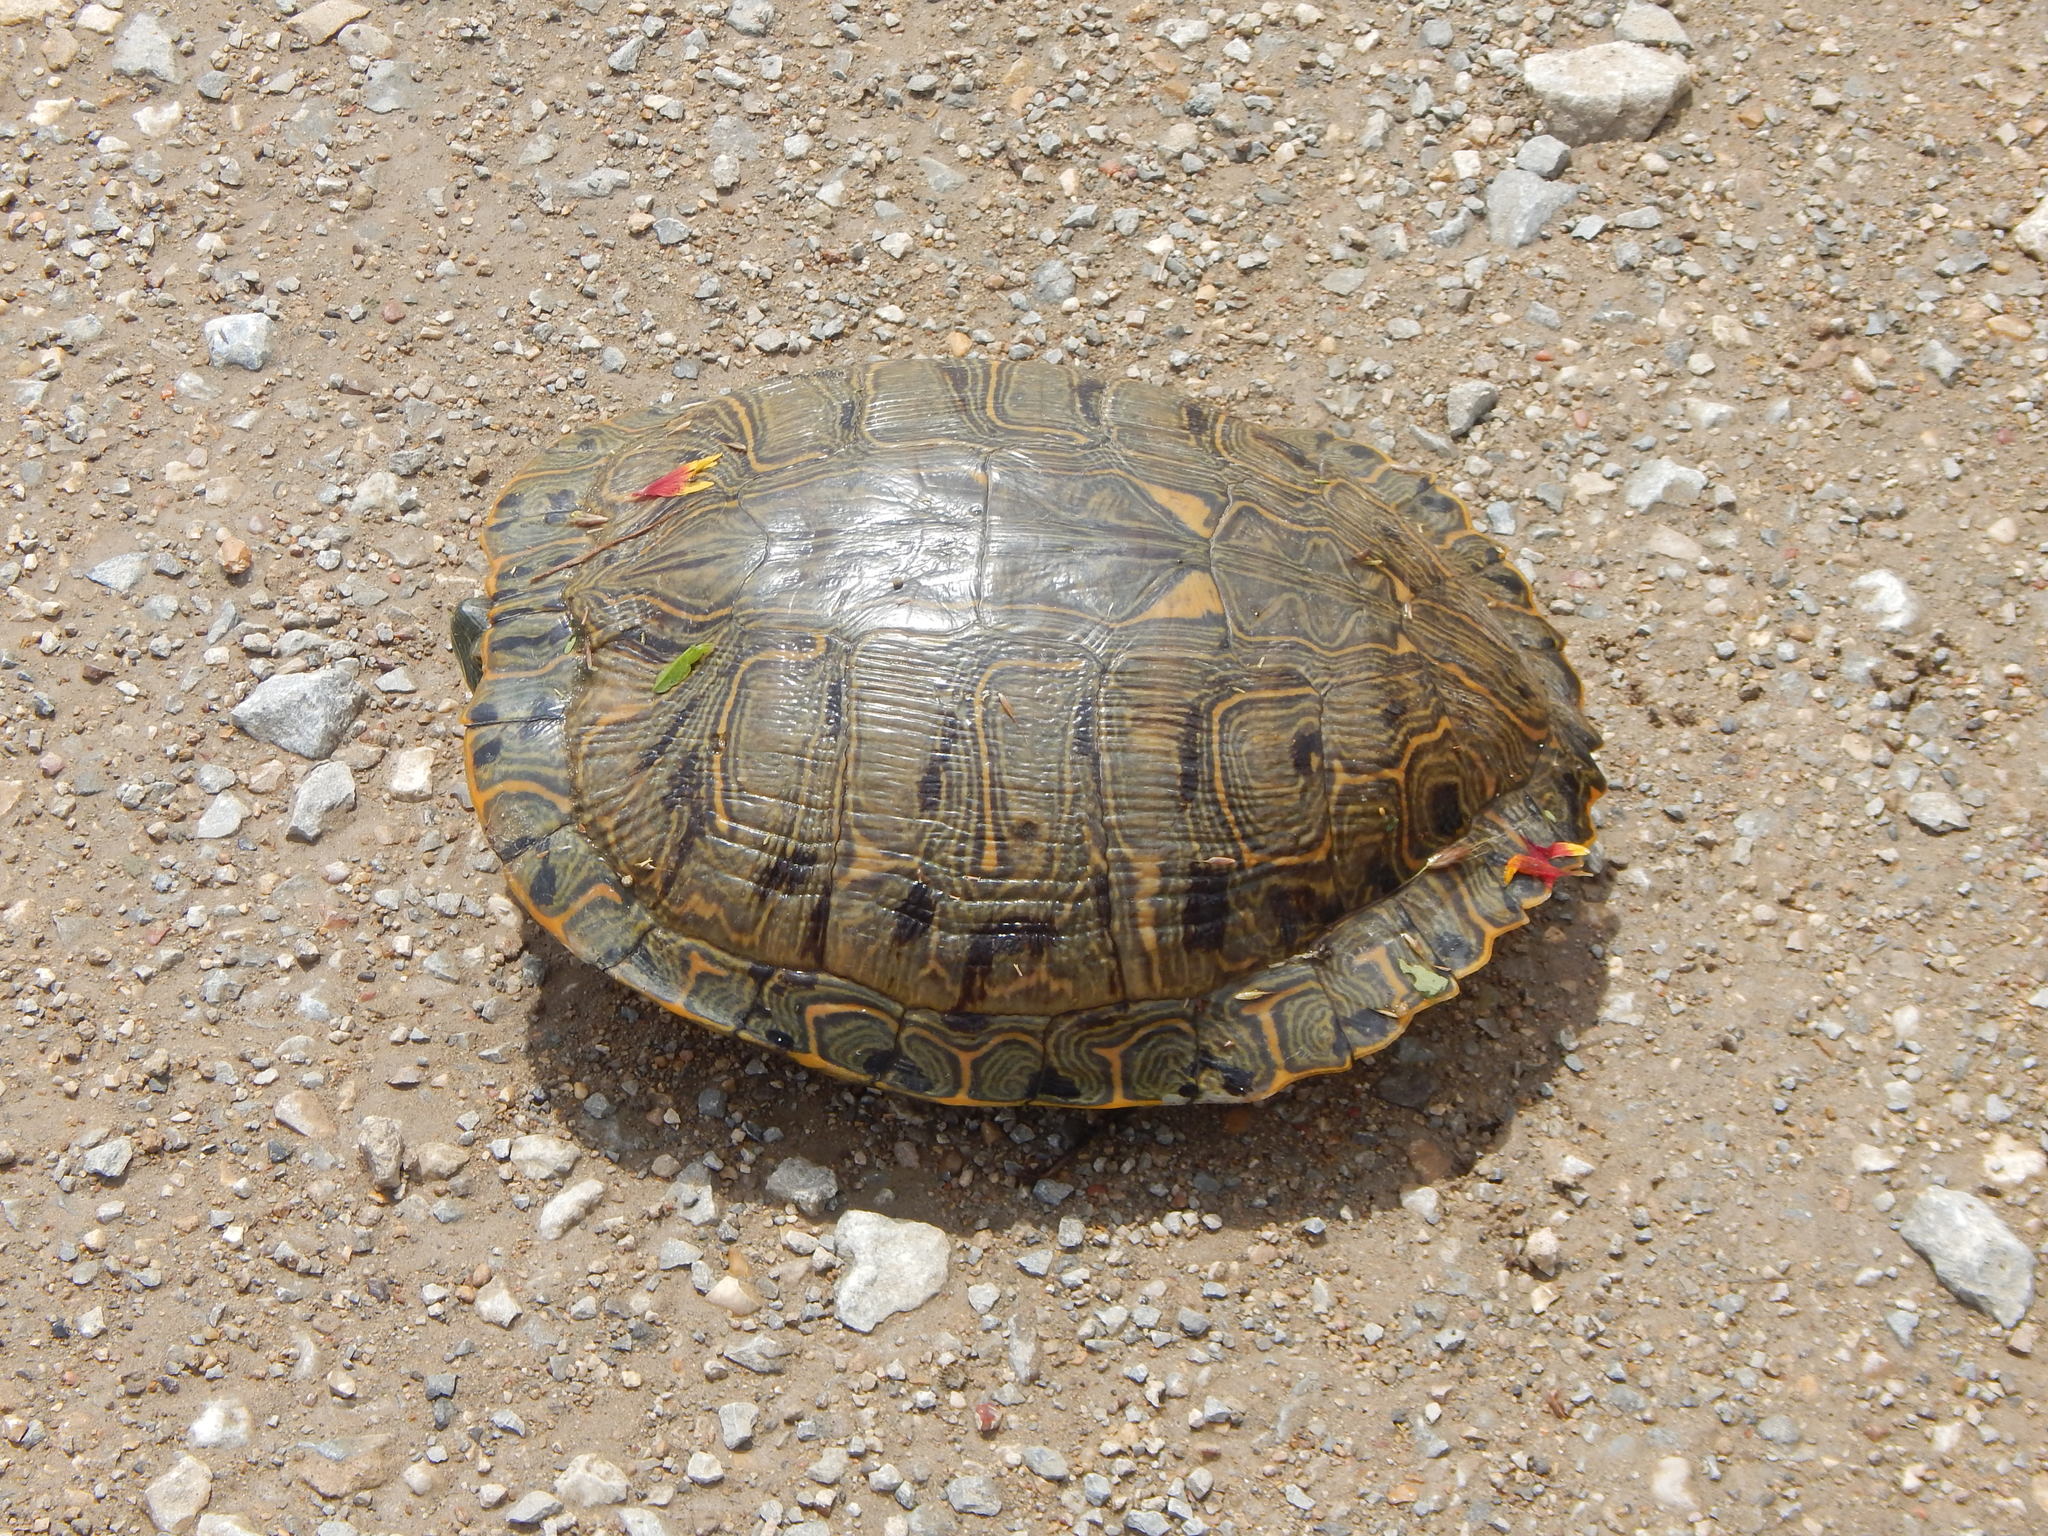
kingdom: Animalia
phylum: Chordata
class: Testudines
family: Emydidae
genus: Trachemys
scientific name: Trachemys scripta
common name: Slider
